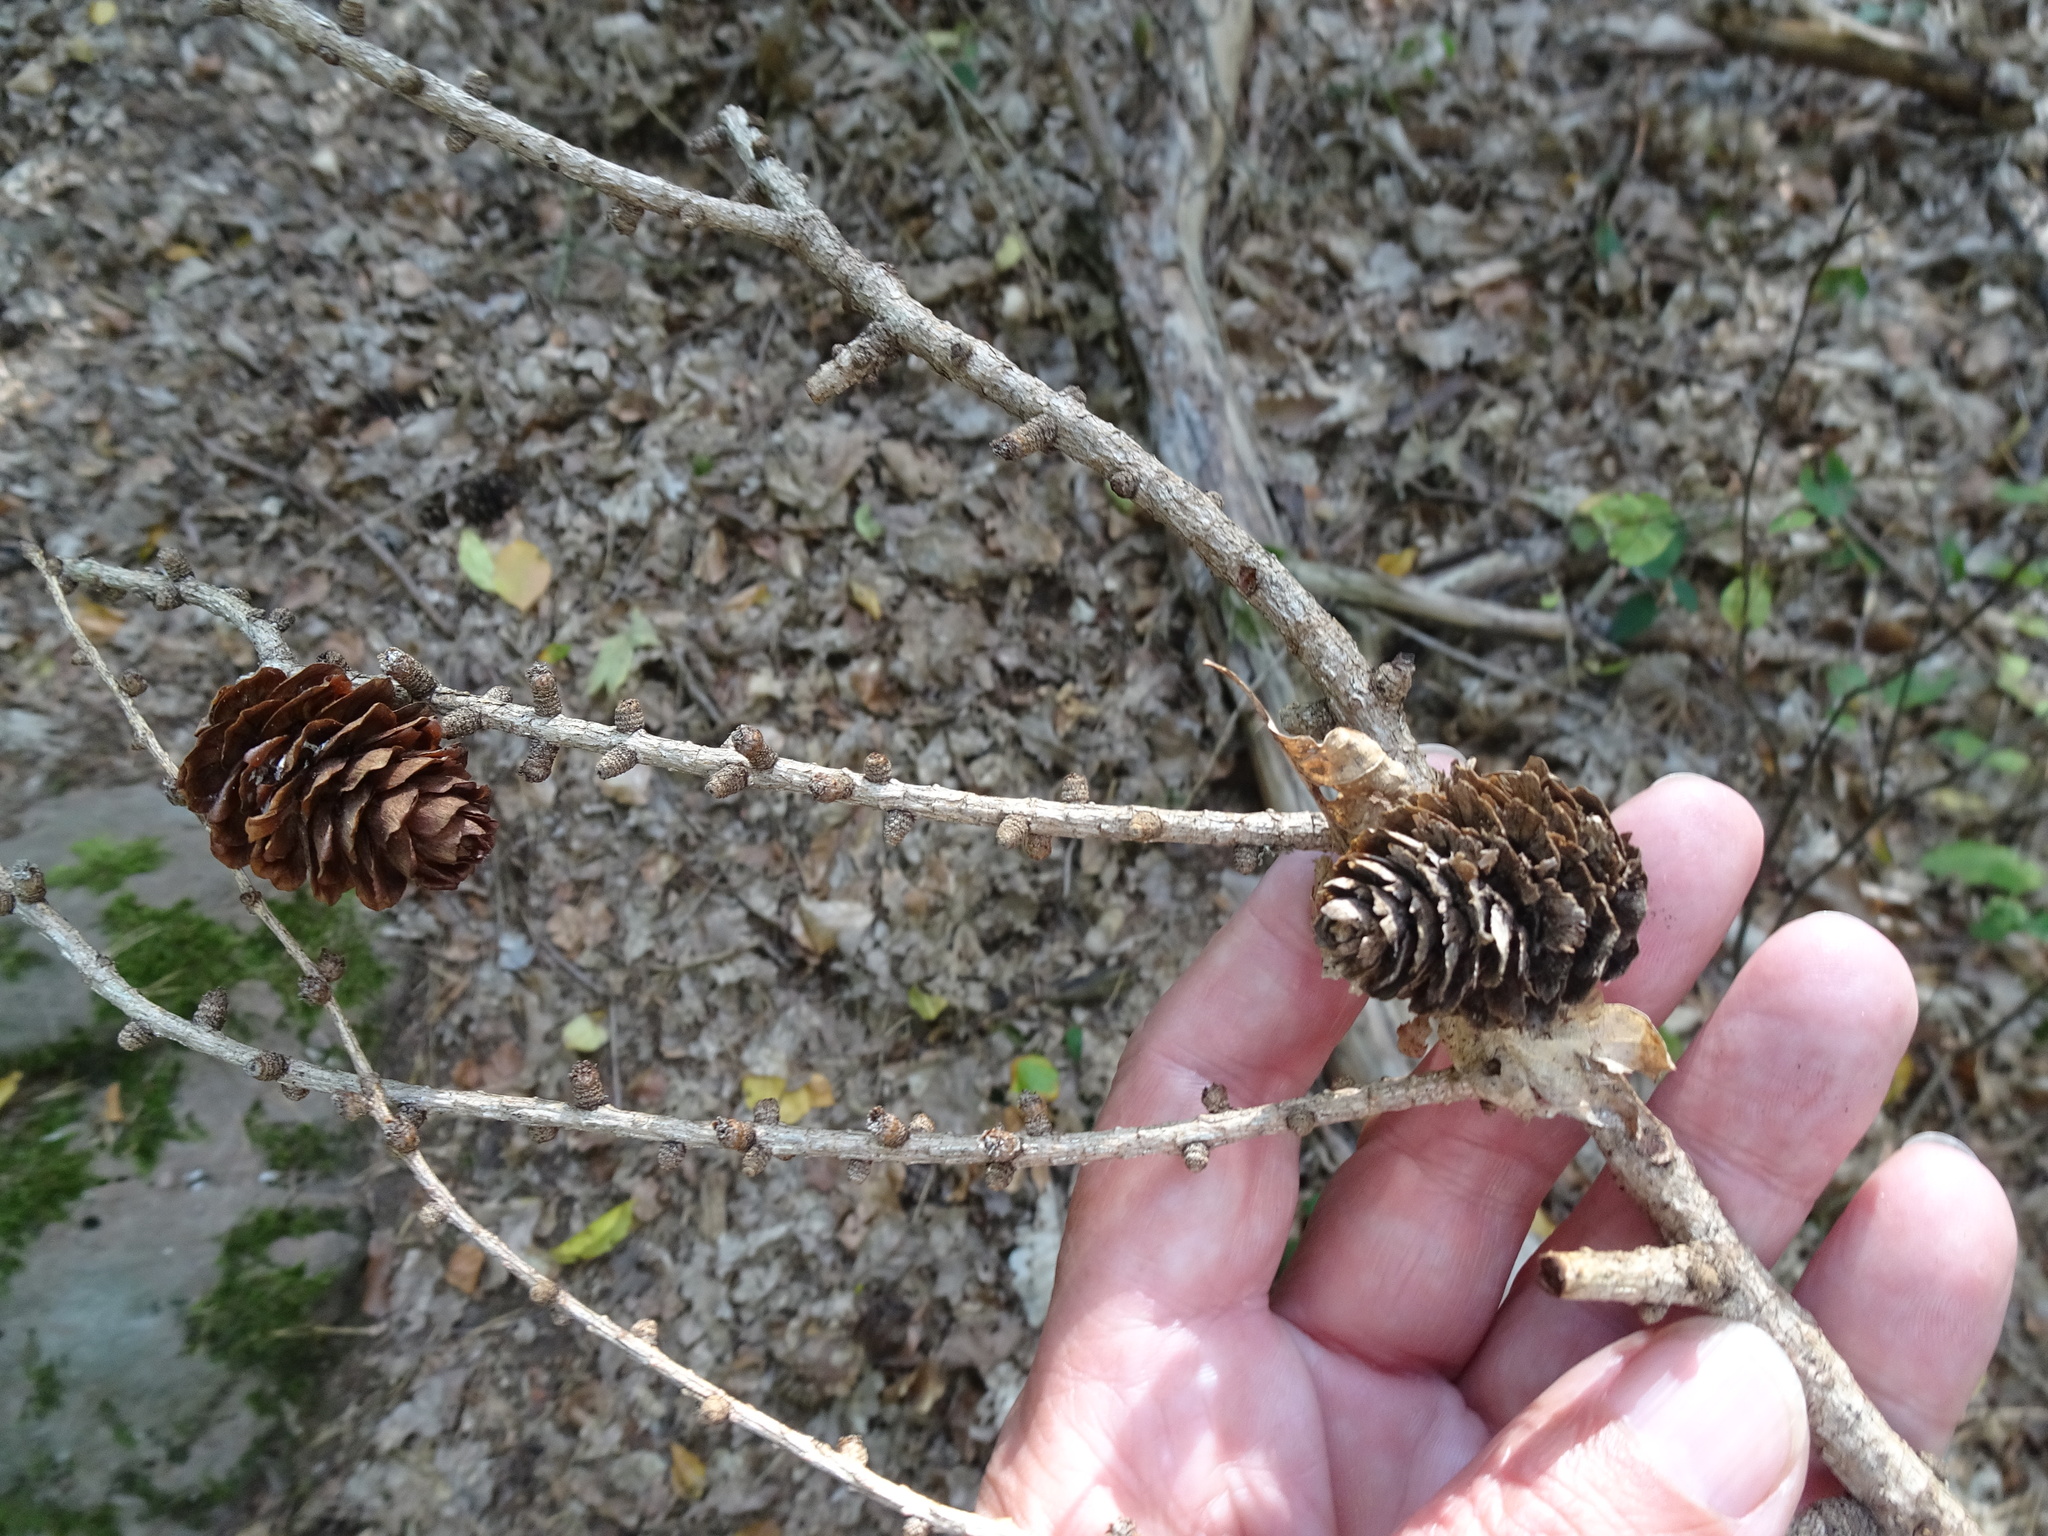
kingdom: Plantae
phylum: Tracheophyta
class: Pinopsida
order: Pinales
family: Pinaceae
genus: Larix
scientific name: Larix decidua
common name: European larch
